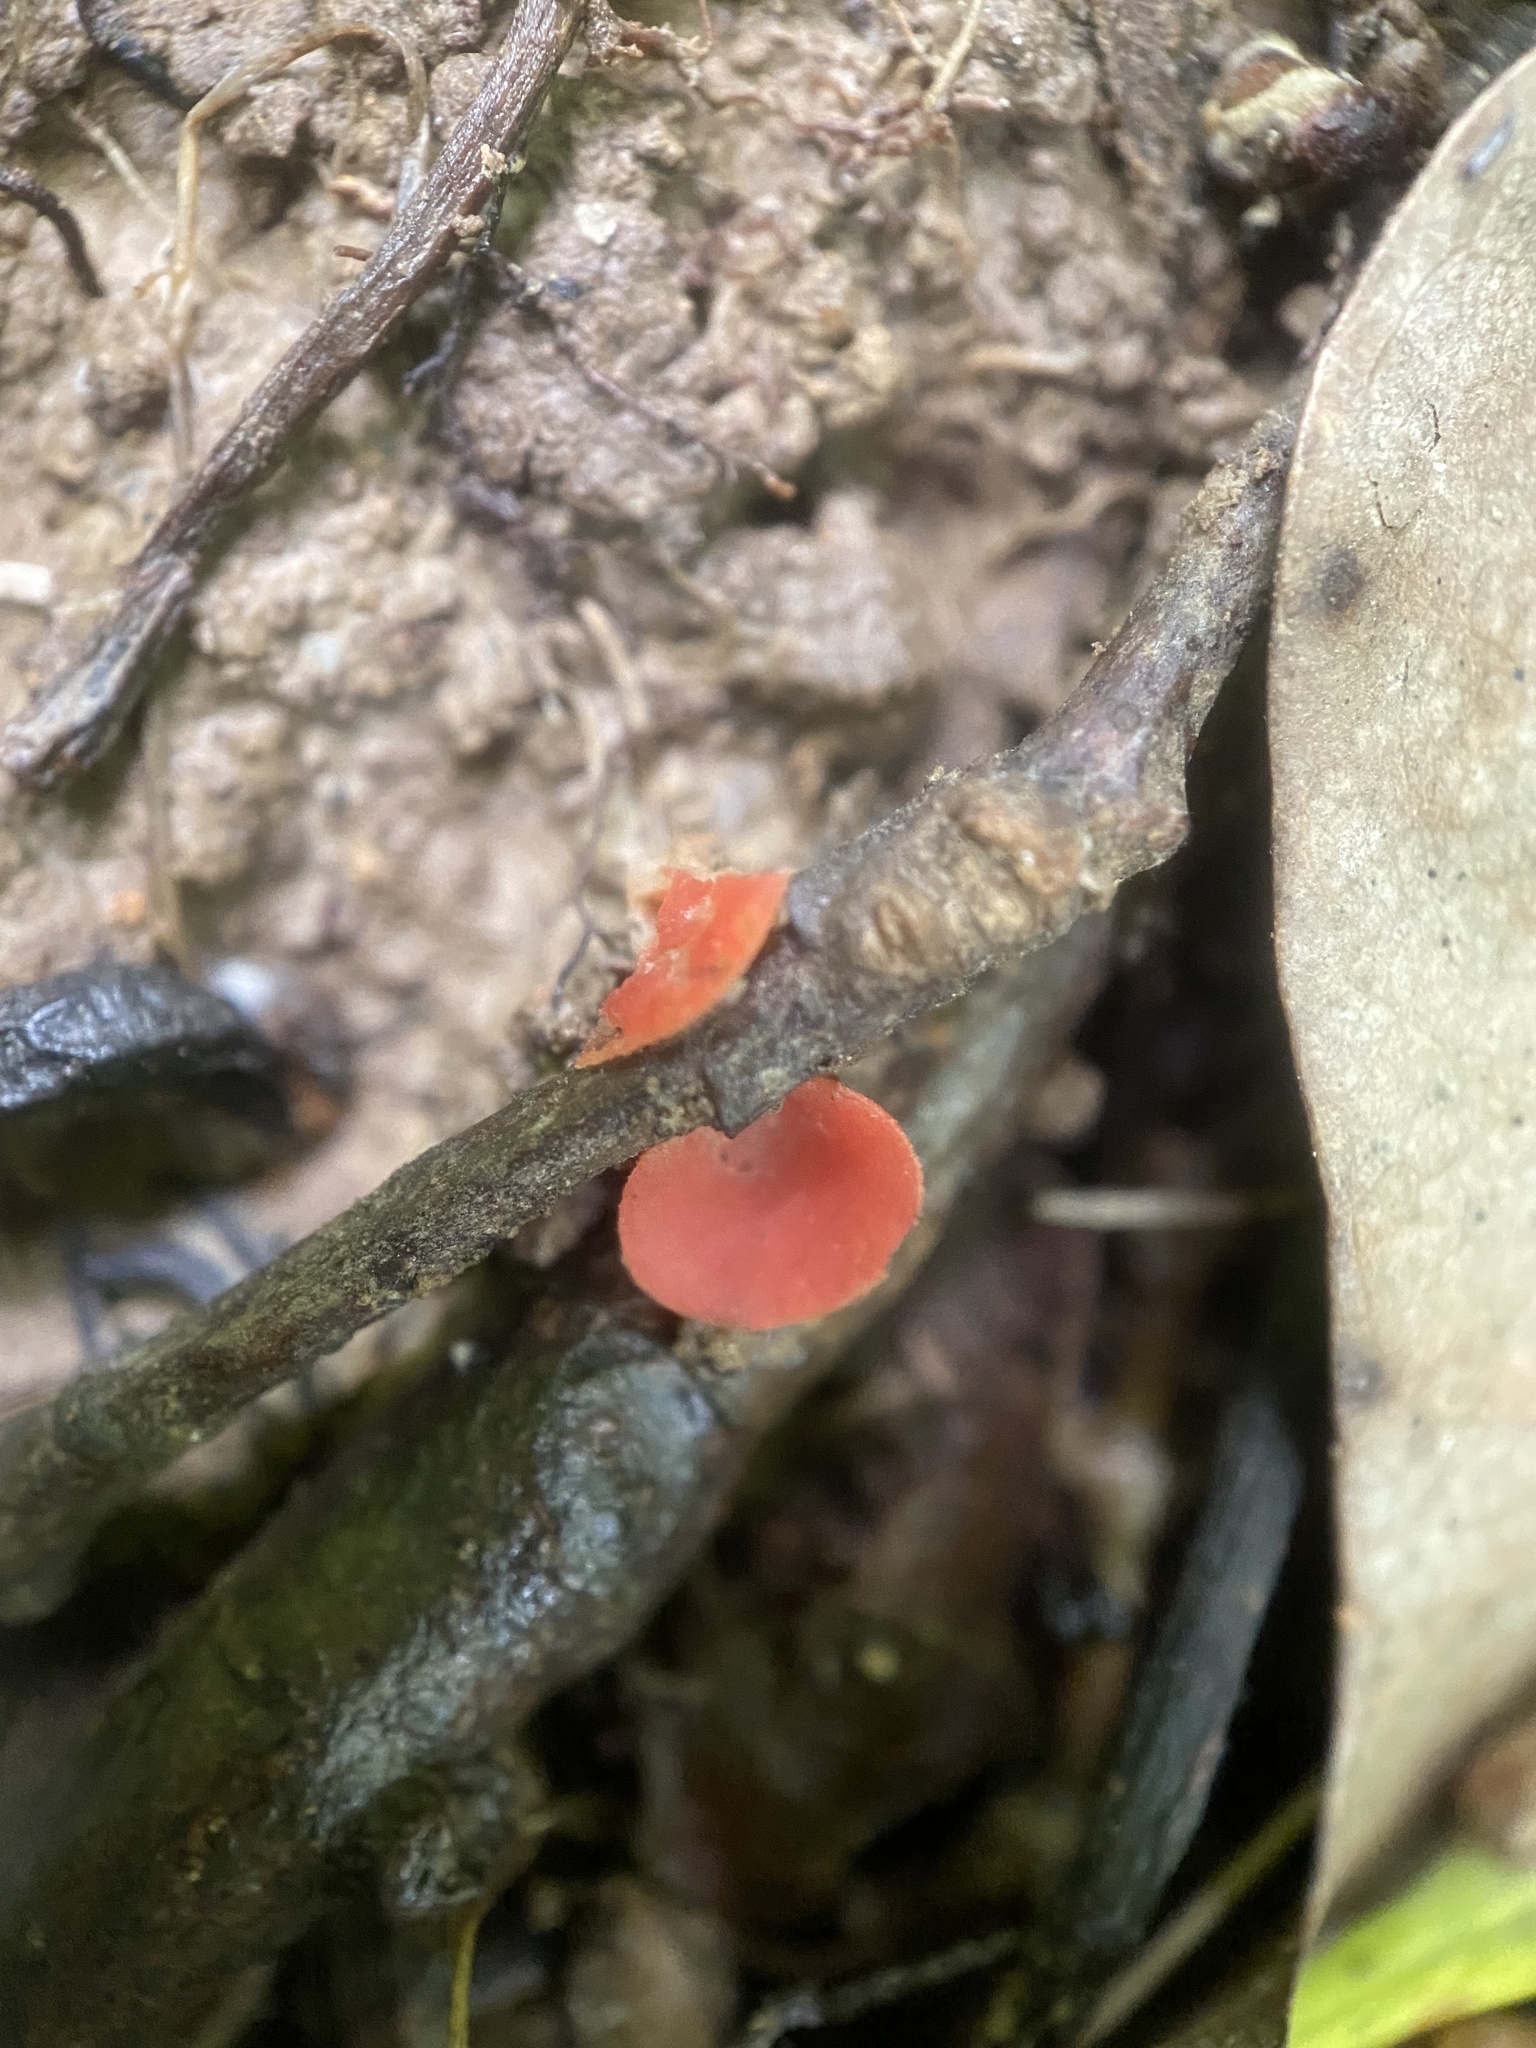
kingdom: Fungi
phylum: Ascomycota
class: Pezizomycetes
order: Pezizales
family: Sarcoscyphaceae
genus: Sarcoscypha
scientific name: Sarcoscypha occidentalis
